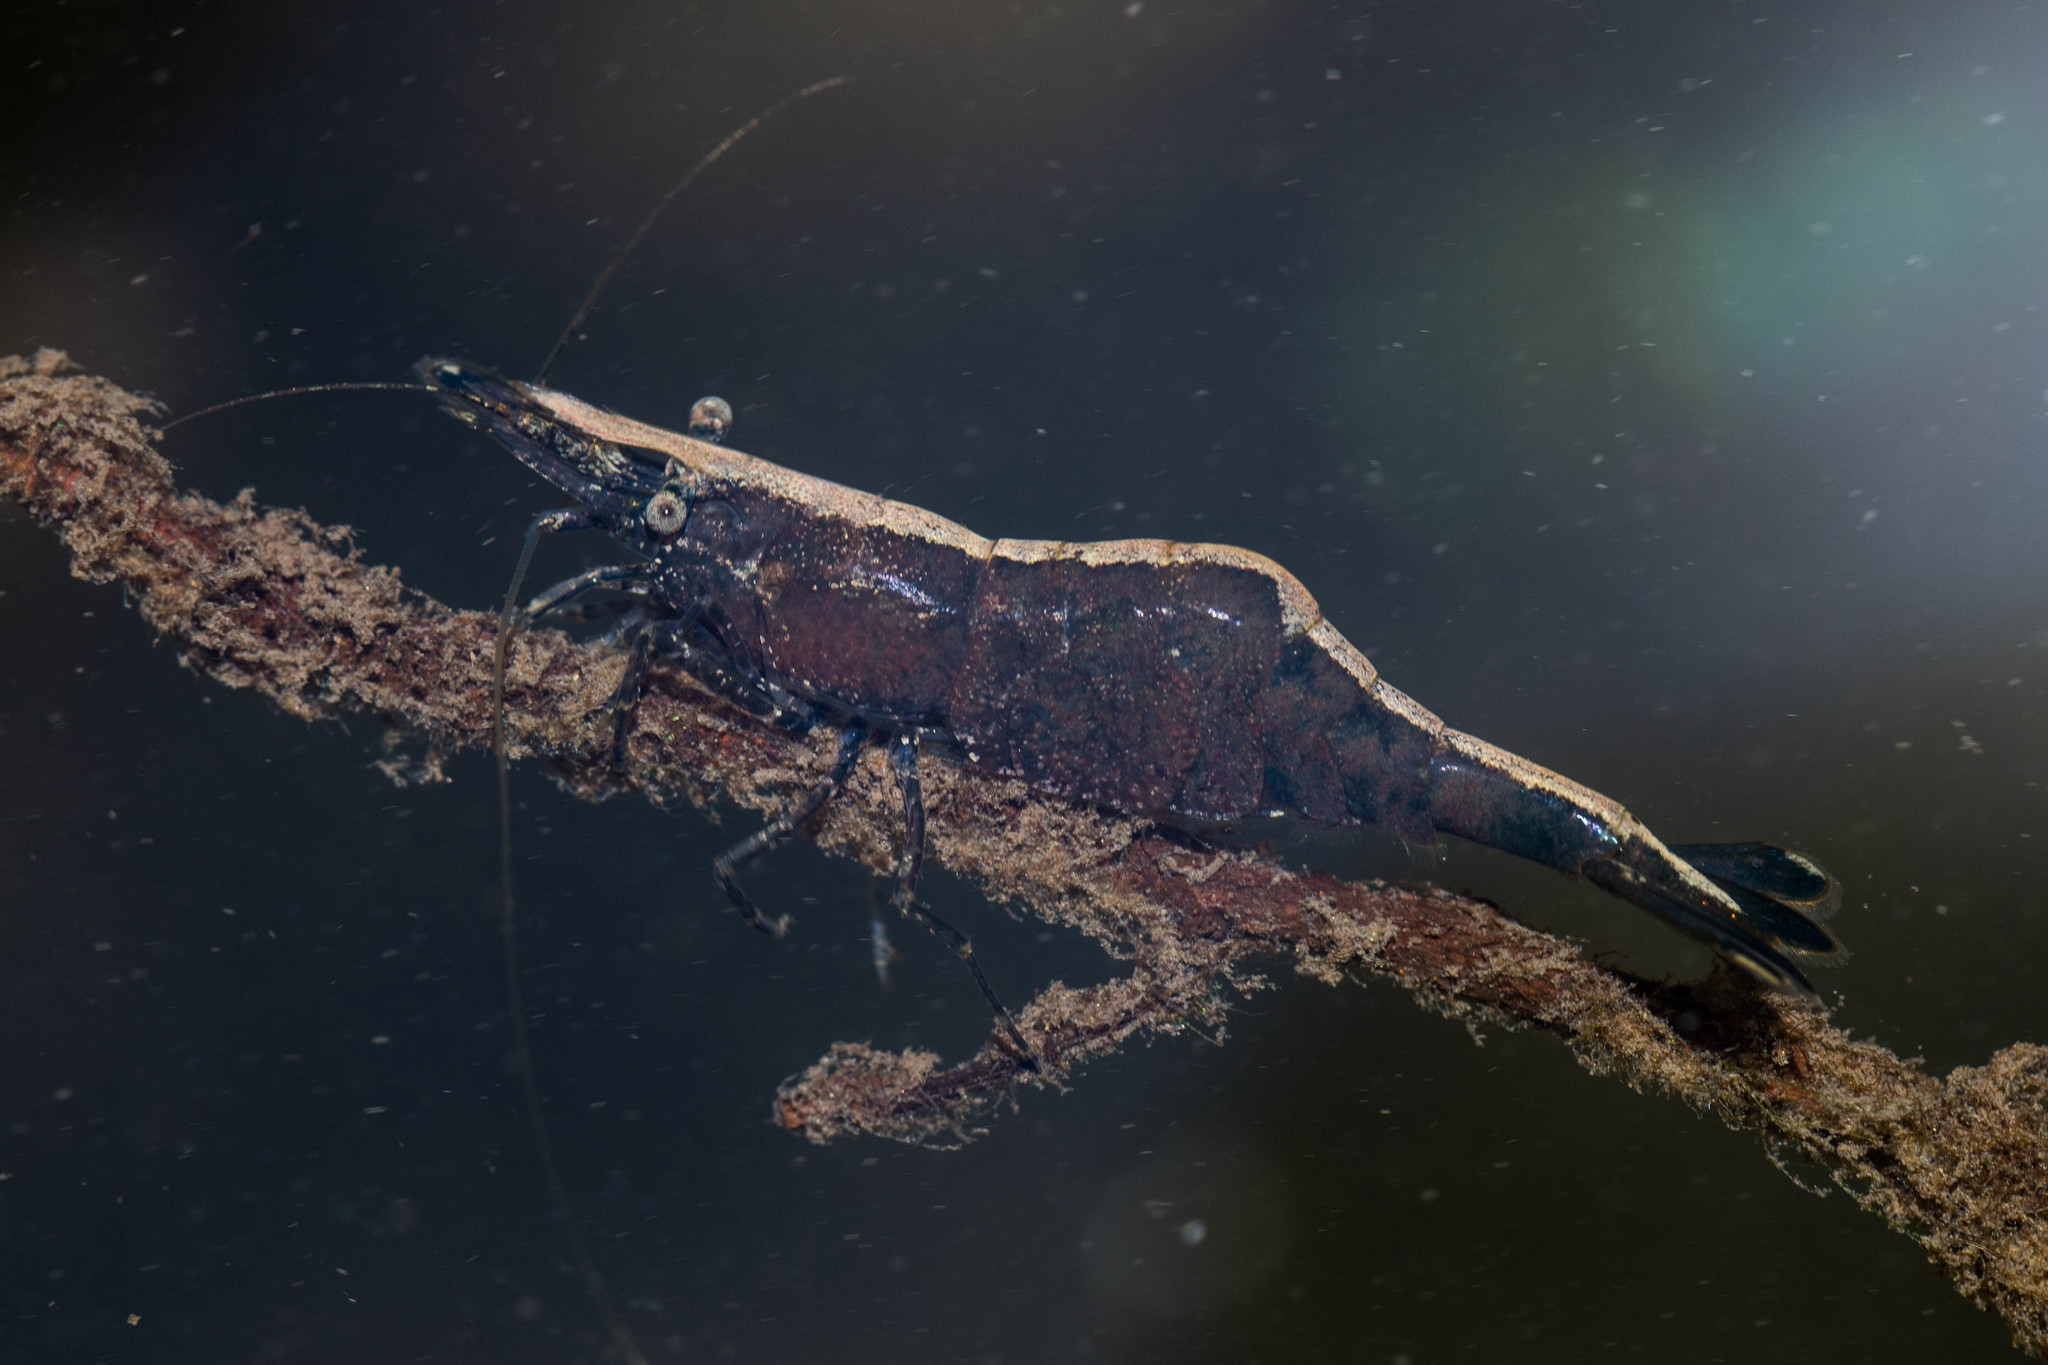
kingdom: Animalia
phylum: Arthropoda
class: Malacostraca
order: Decapoda
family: Atyidae
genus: Syncaris
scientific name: Syncaris pacifica
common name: California freshwater shrimp
